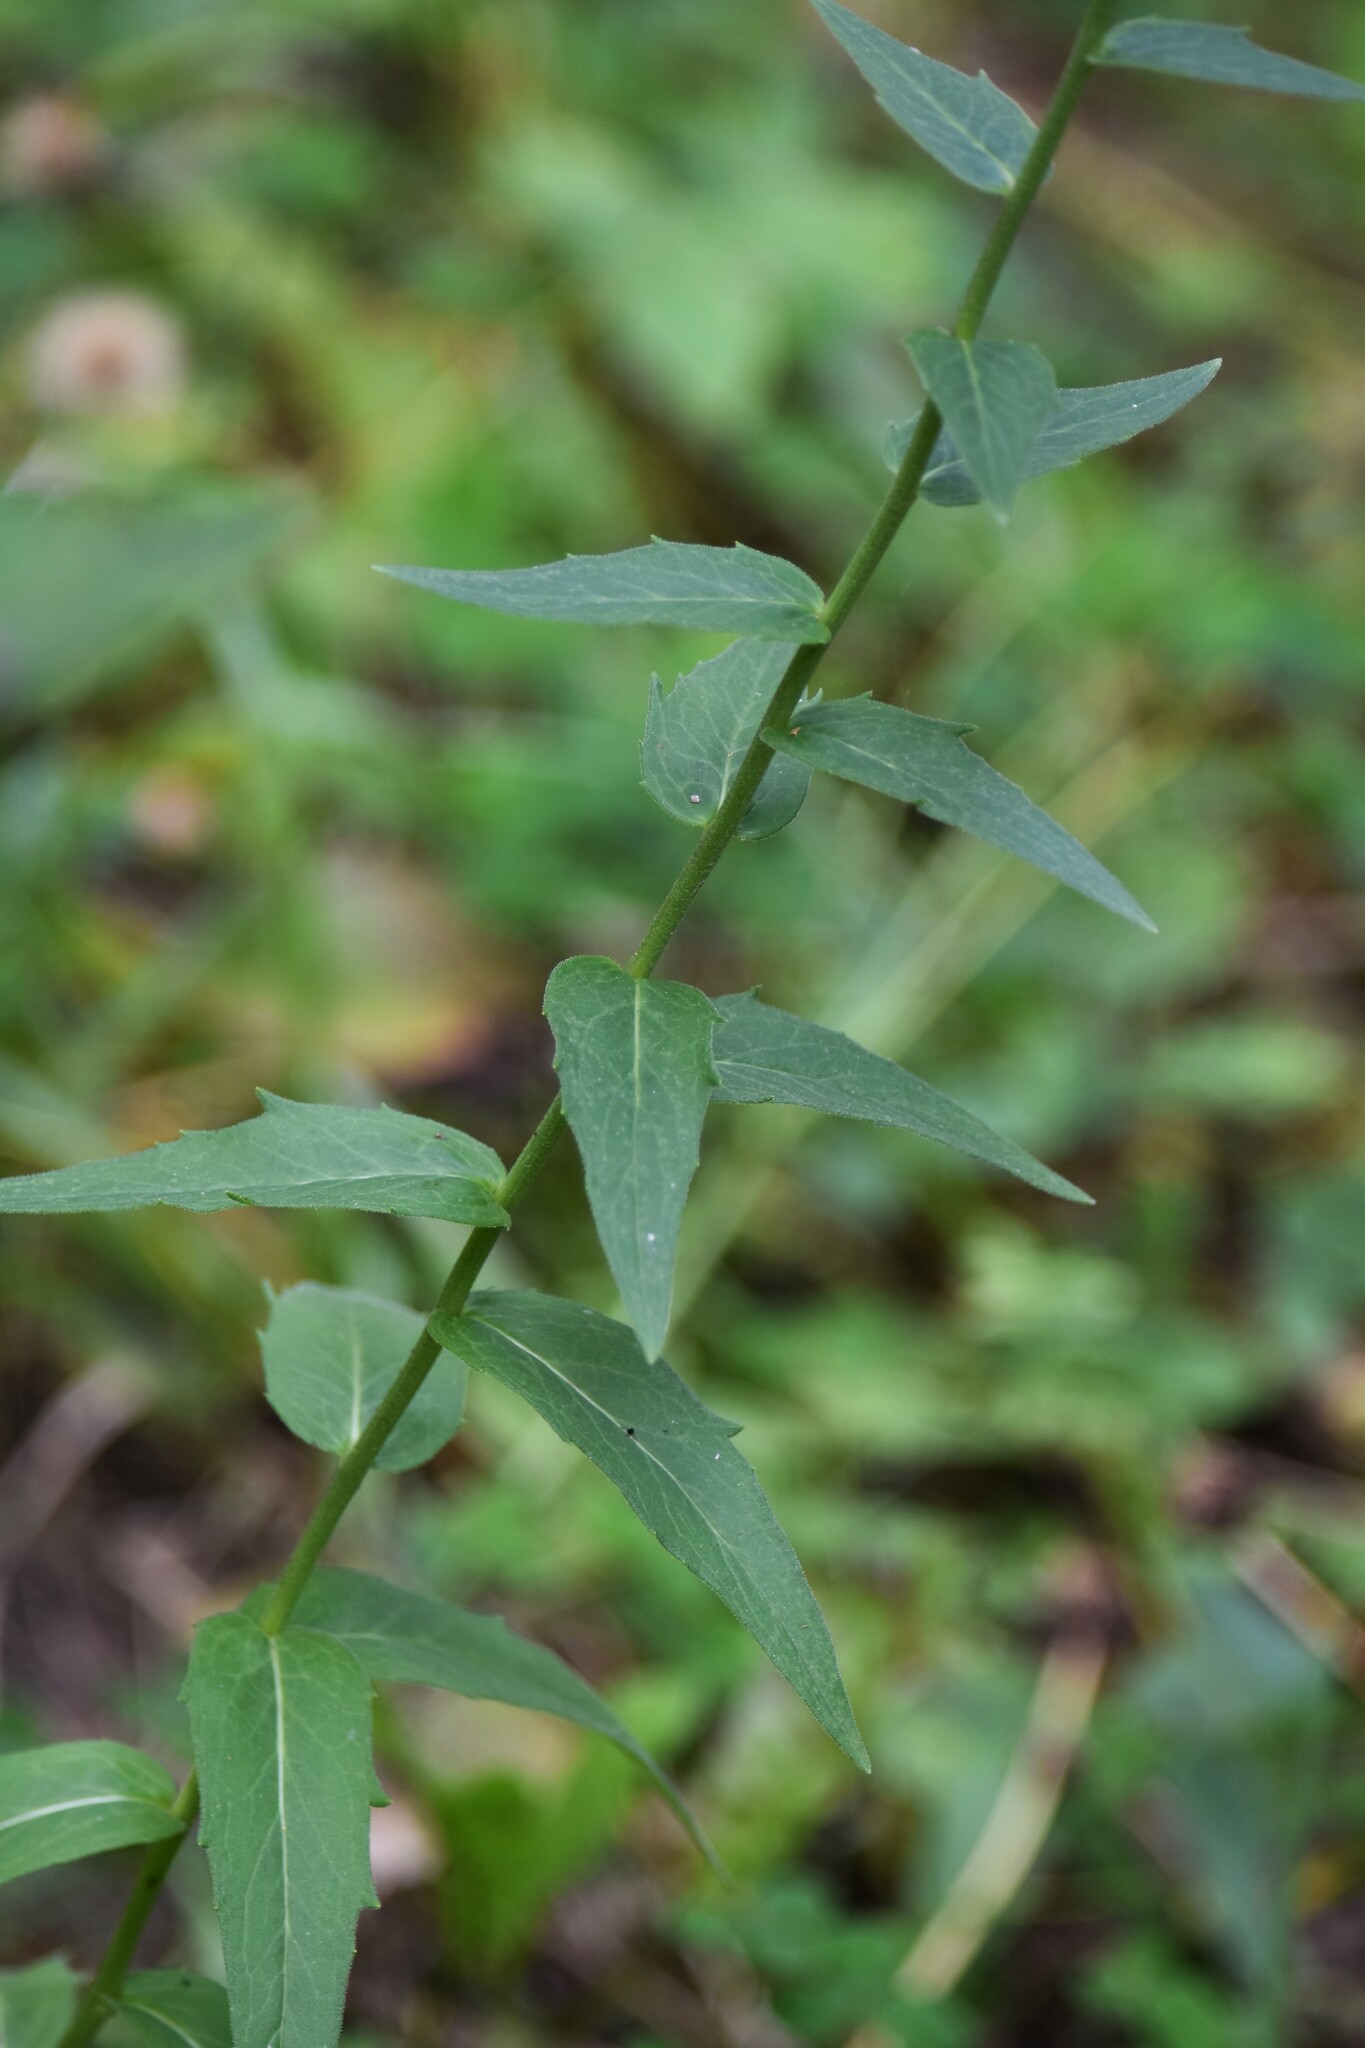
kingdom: Plantae
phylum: Tracheophyta
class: Magnoliopsida
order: Asterales
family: Asteraceae
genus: Hieracium
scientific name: Hieracium umbellatum
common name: Northern hawkweed
